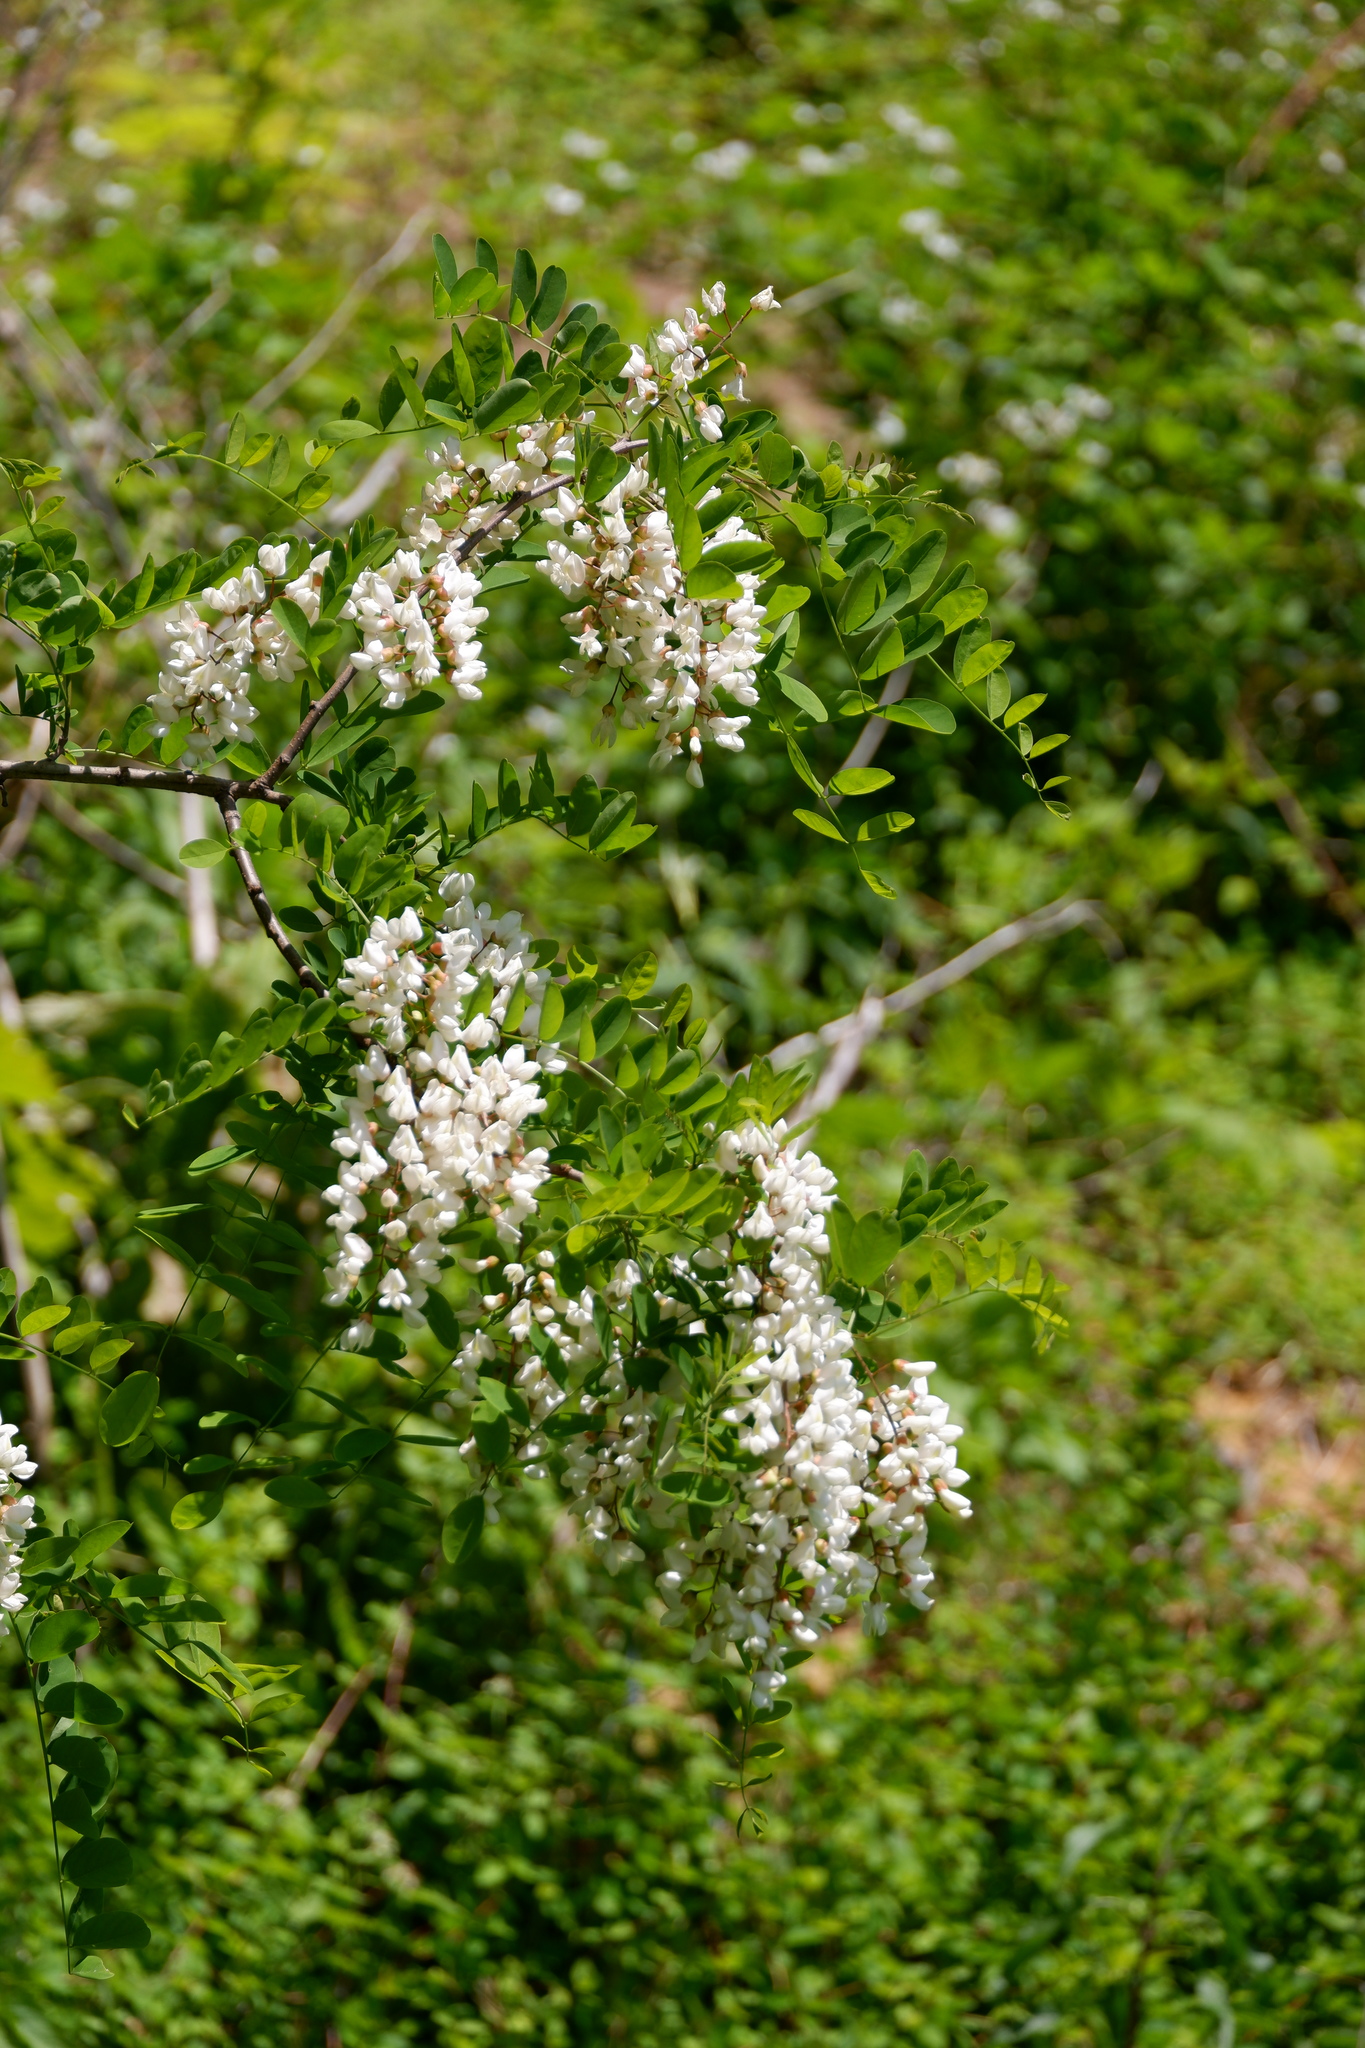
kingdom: Plantae
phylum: Tracheophyta
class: Magnoliopsida
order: Fabales
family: Fabaceae
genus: Robinia
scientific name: Robinia pseudoacacia
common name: Black locust
